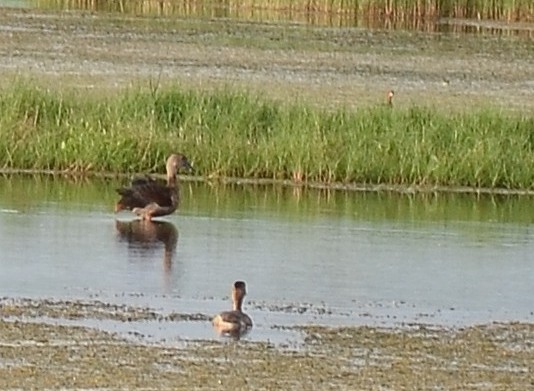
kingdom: Animalia
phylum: Chordata
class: Aves
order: Anseriformes
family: Anatidae
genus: Dendrocygna
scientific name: Dendrocygna javanica
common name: Lesser whistling-duck
